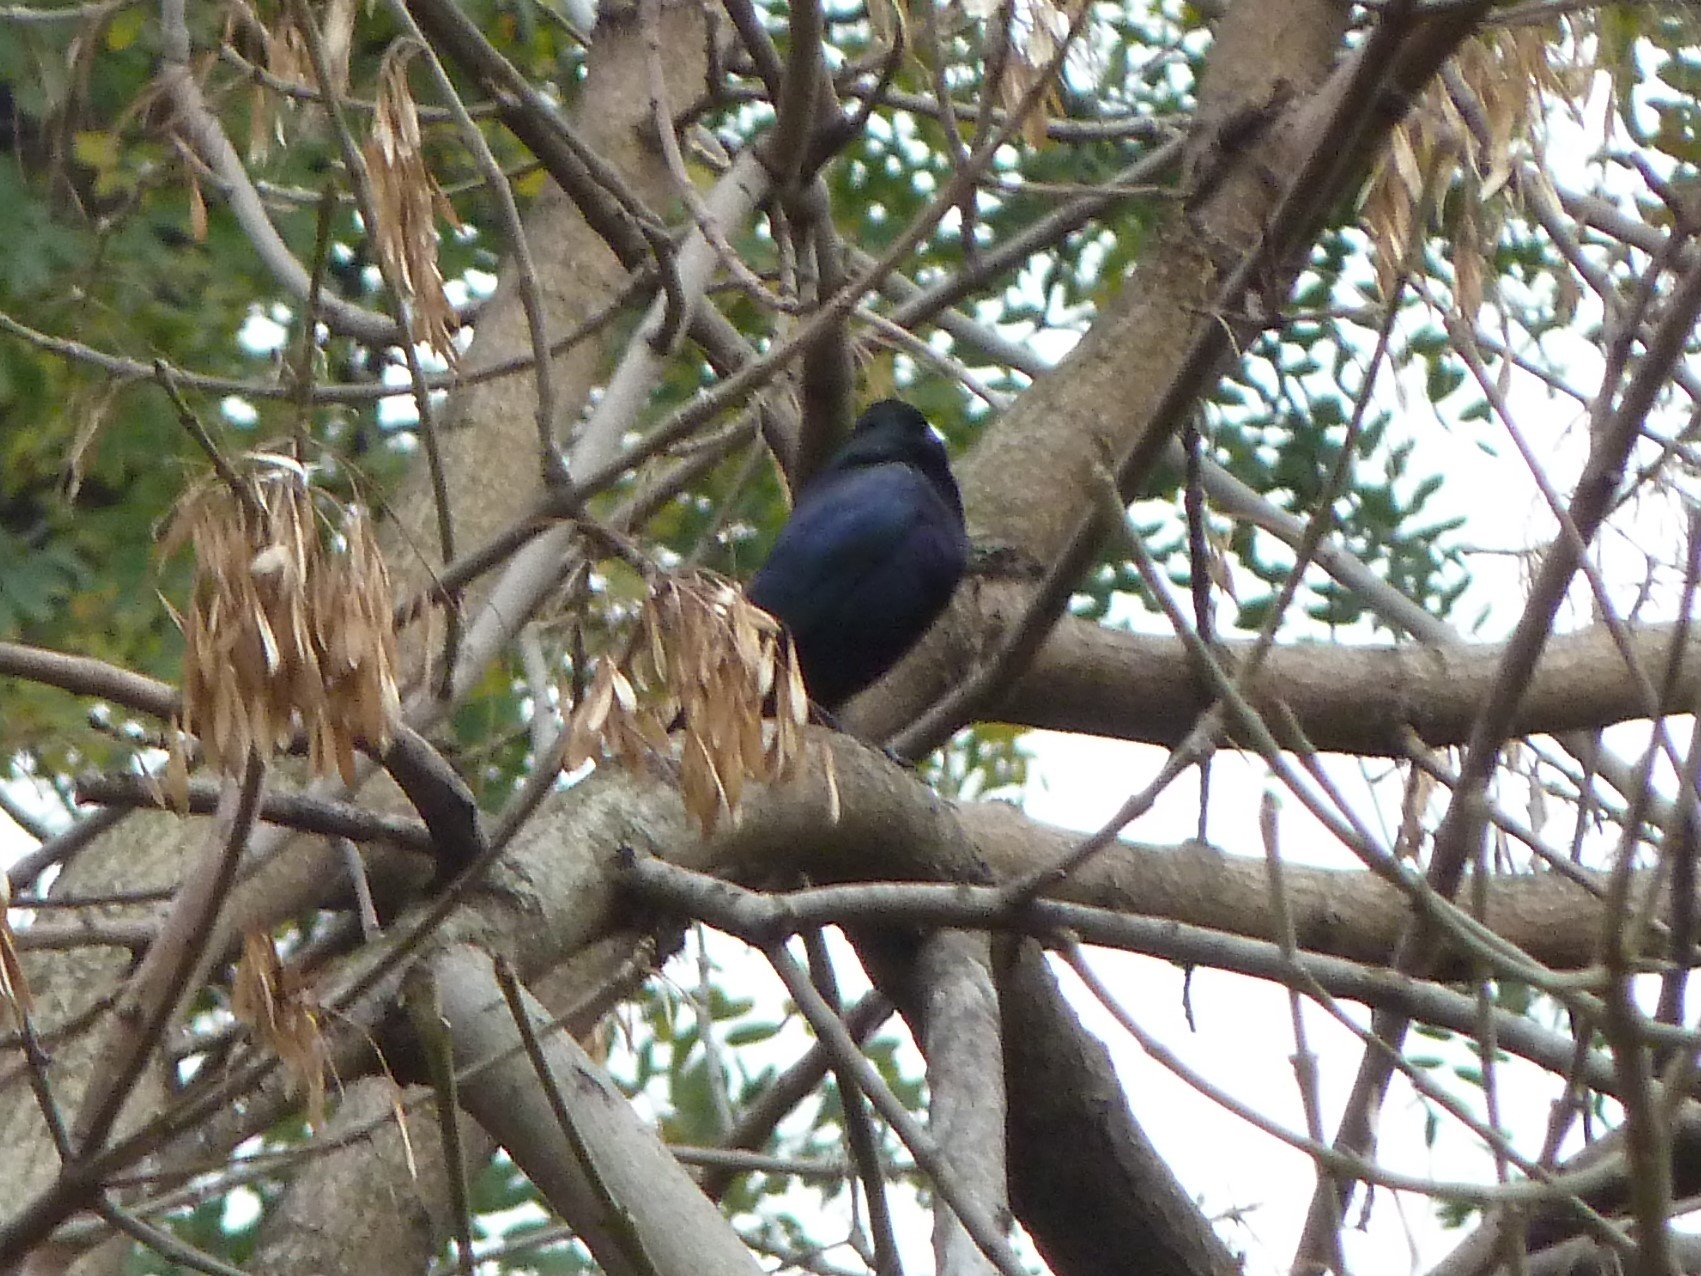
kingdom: Animalia
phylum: Chordata
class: Aves
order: Passeriformes
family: Icteridae
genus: Molothrus
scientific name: Molothrus bonariensis
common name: Shiny cowbird
